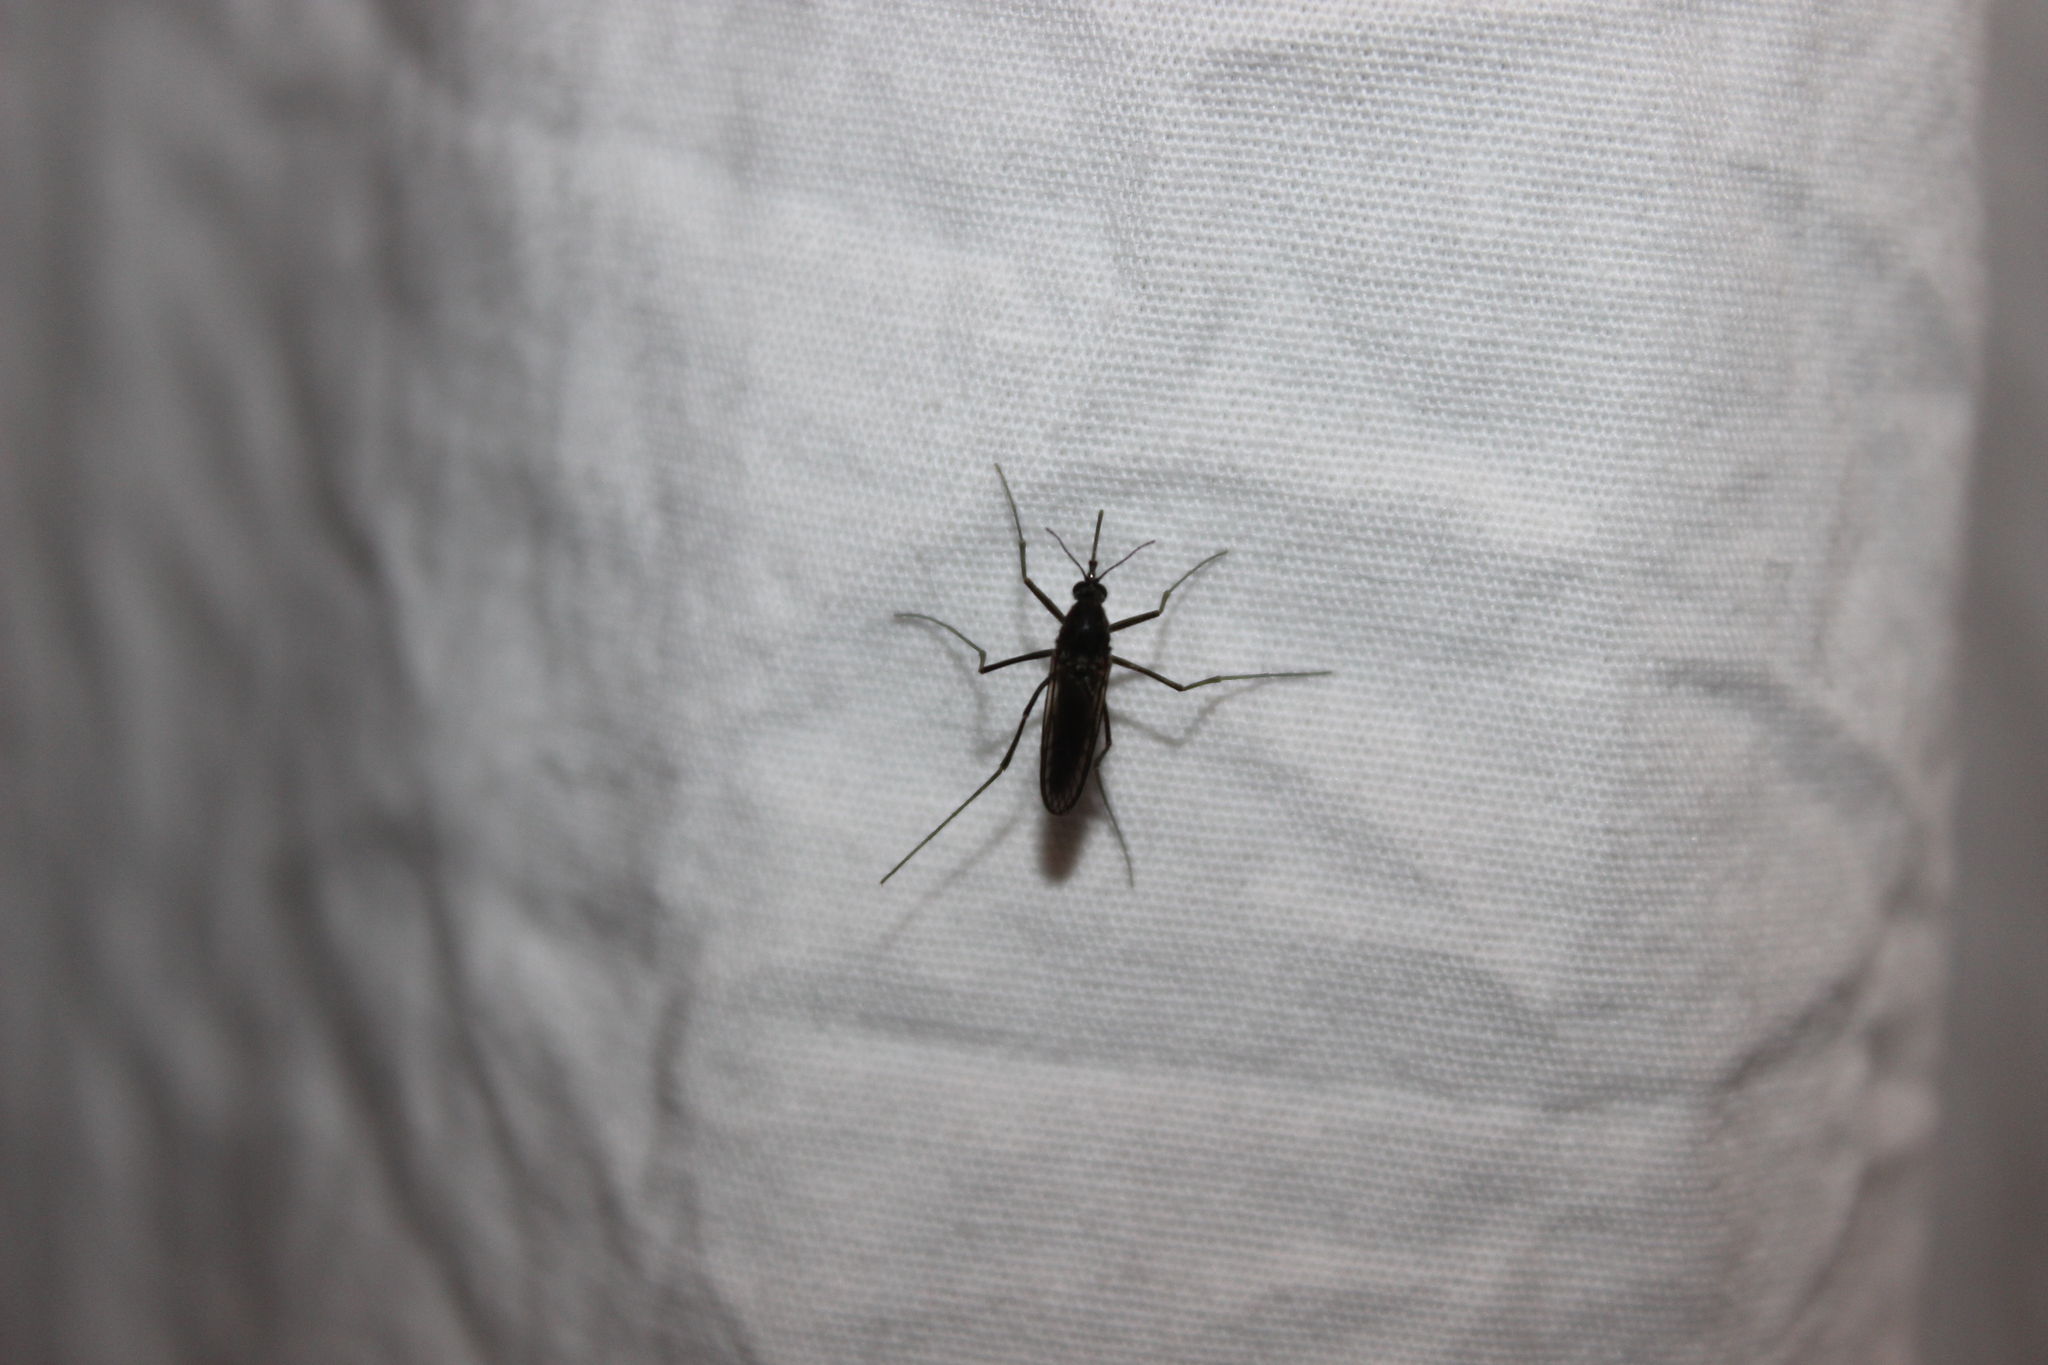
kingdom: Animalia
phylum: Arthropoda
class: Insecta
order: Diptera
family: Culicidae
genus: Opifex
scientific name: Opifex fuscus
